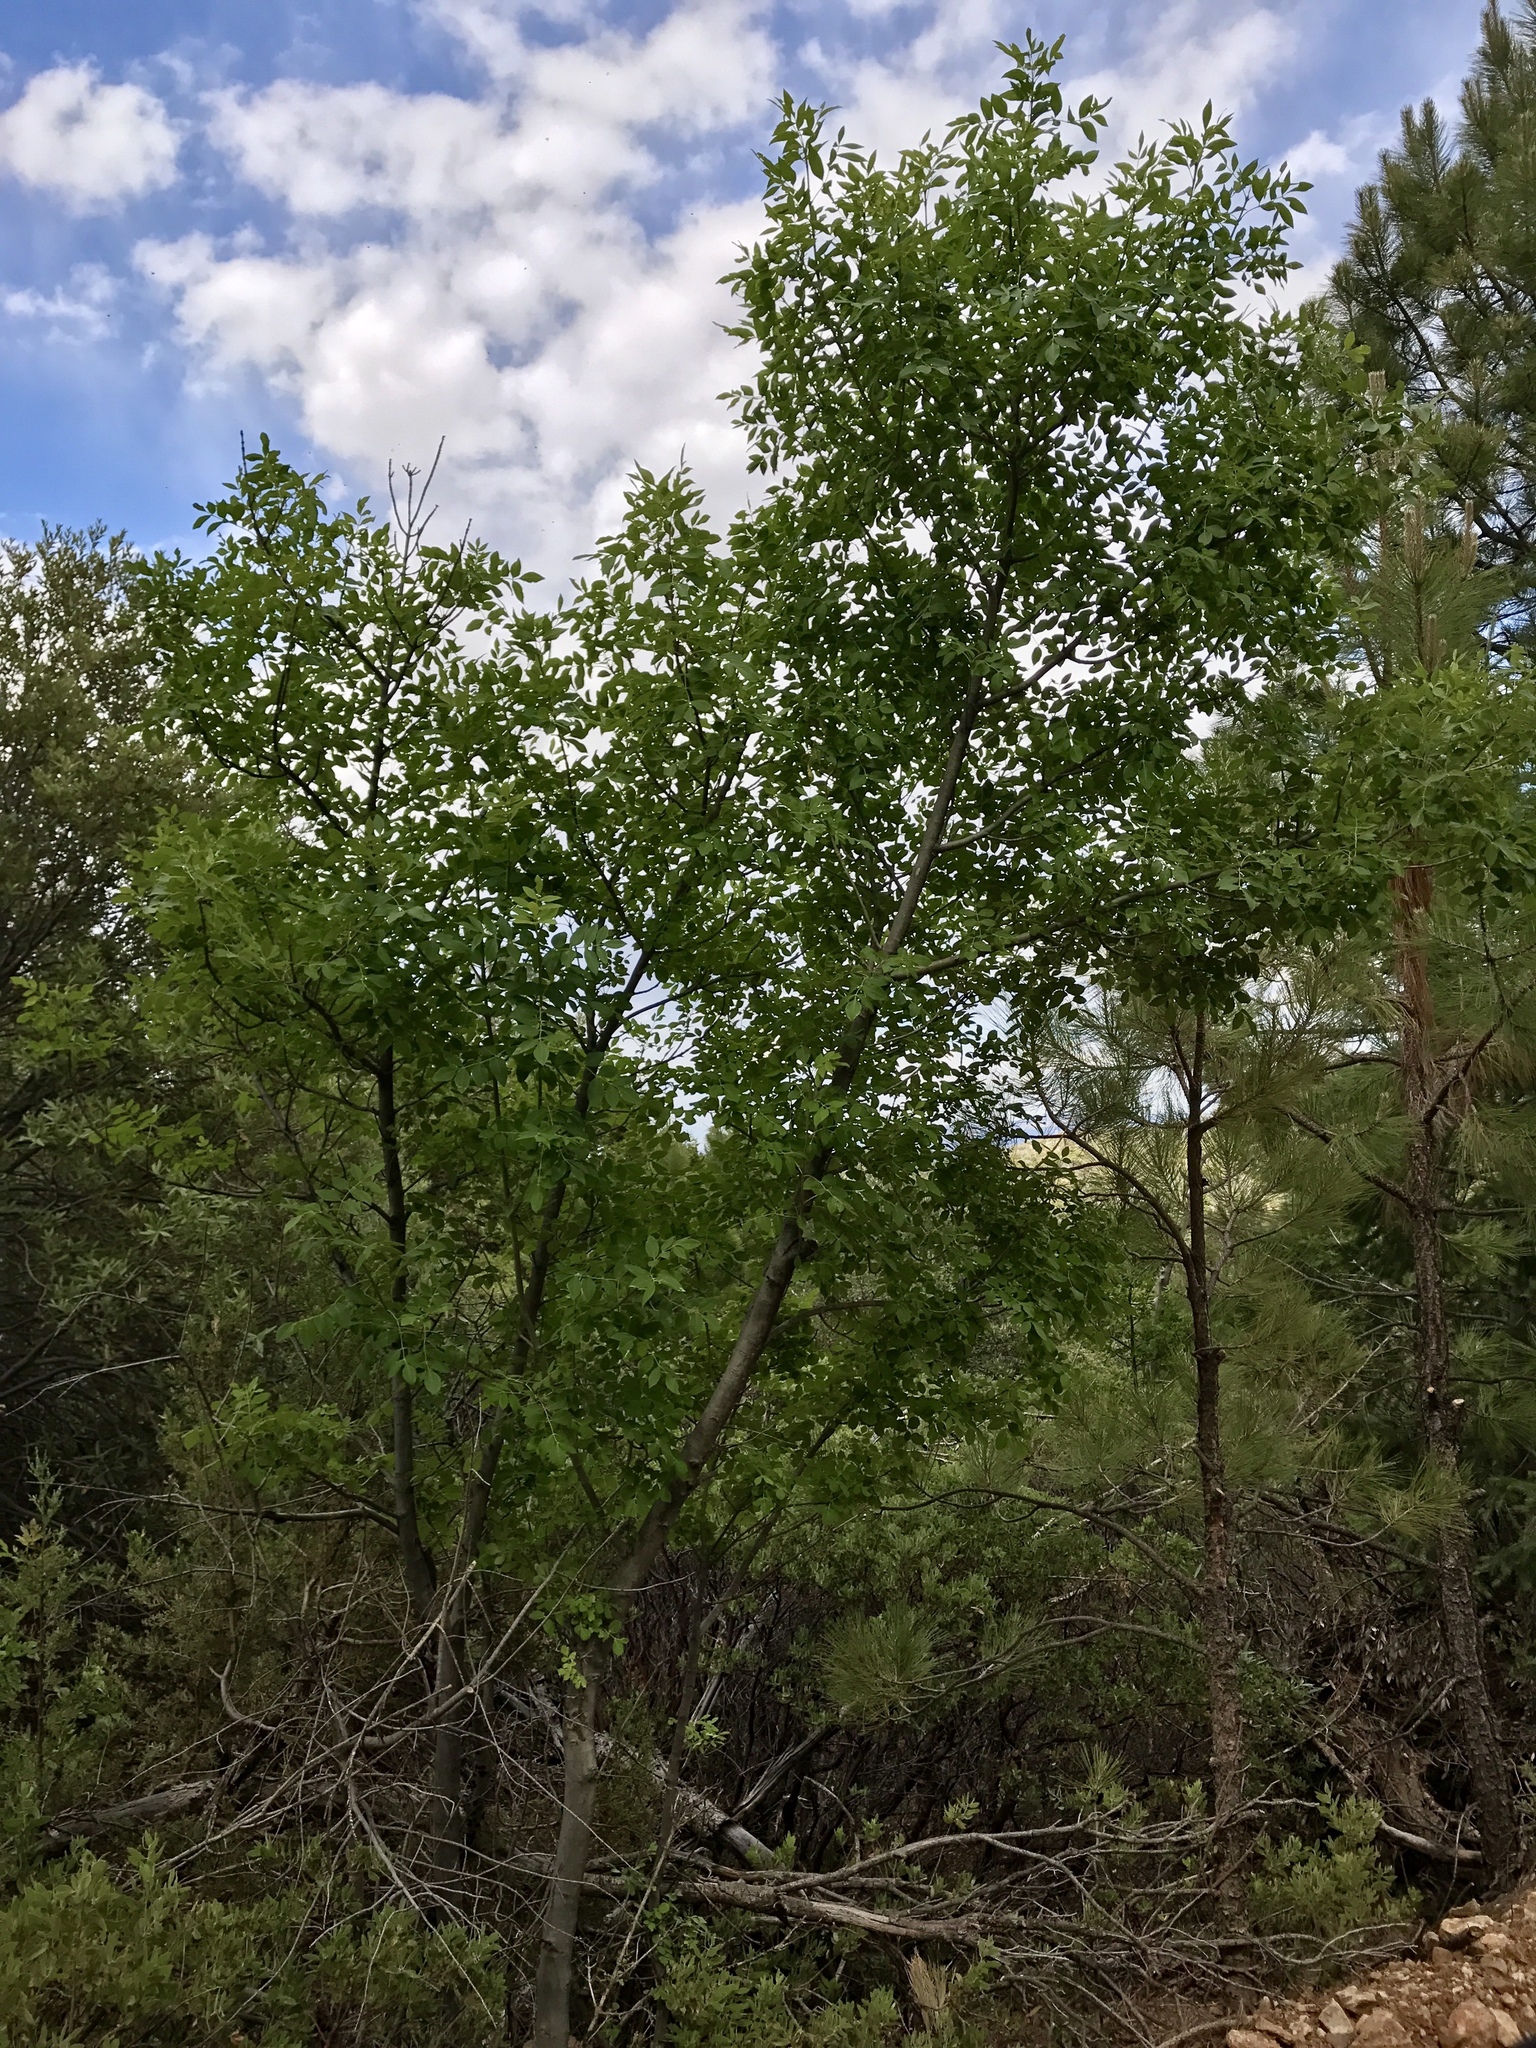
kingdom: Plantae
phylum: Tracheophyta
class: Magnoliopsida
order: Lamiales
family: Oleaceae
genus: Fraxinus
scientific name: Fraxinus velutina
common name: Arizon ash
